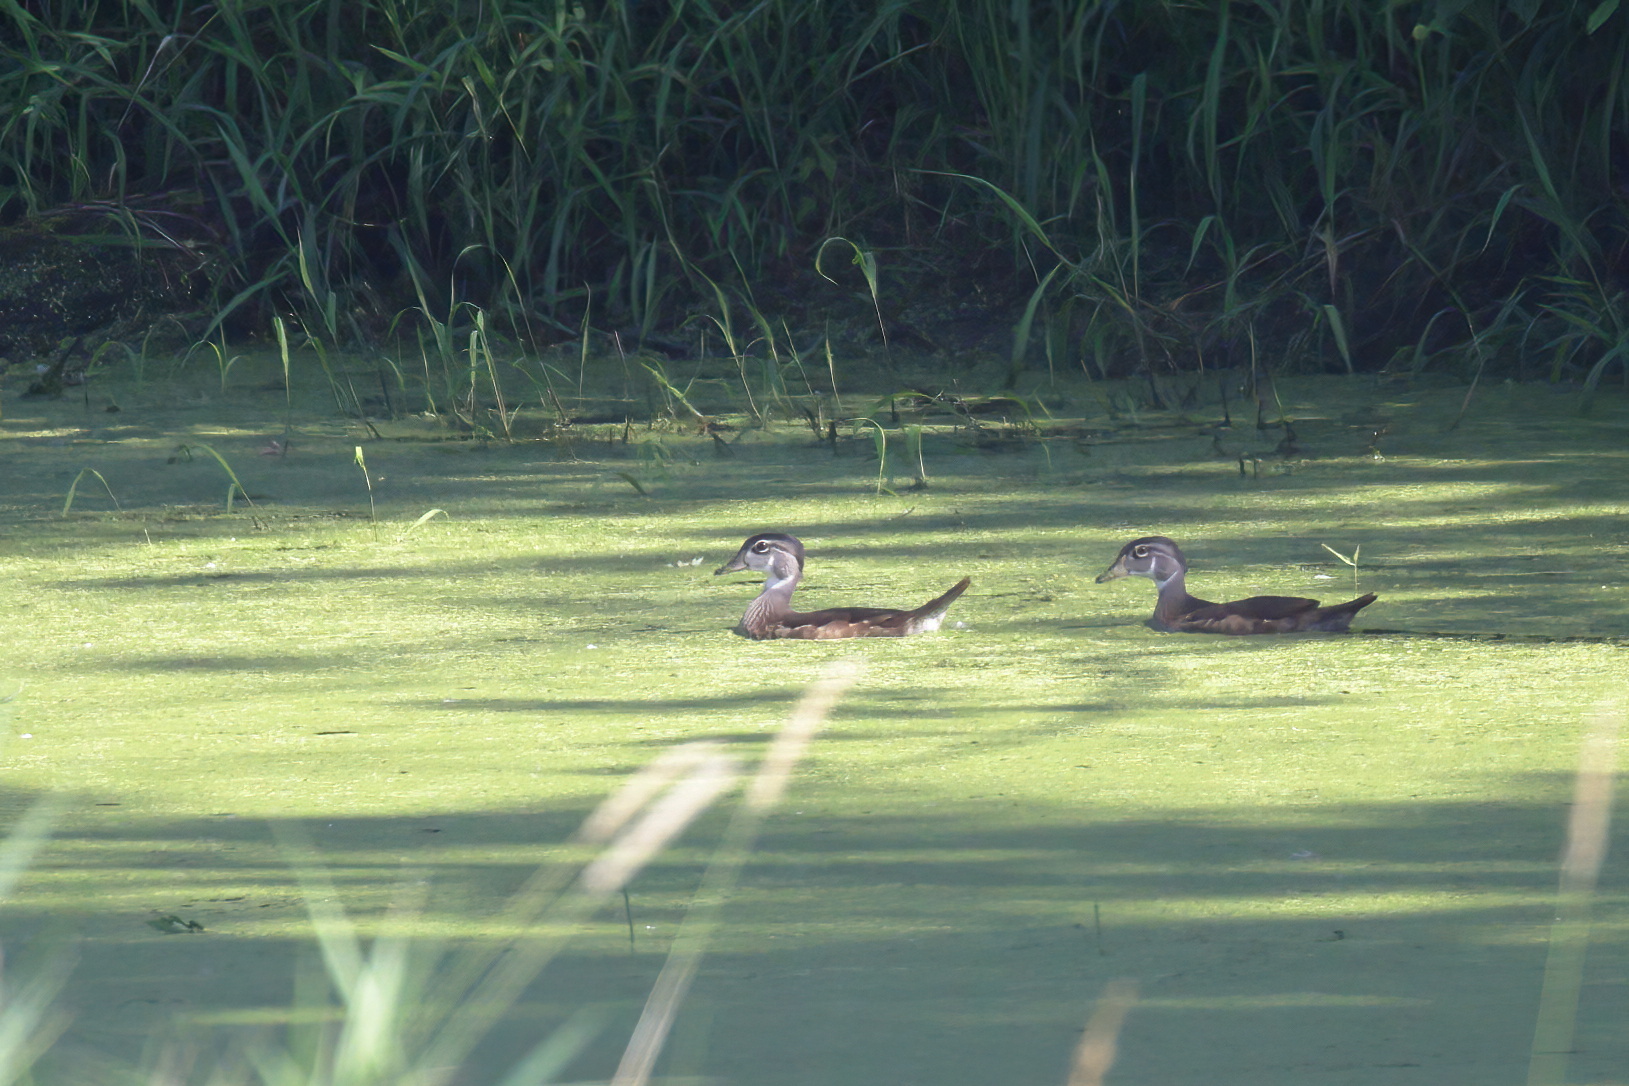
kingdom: Animalia
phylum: Chordata
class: Aves
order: Anseriformes
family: Anatidae
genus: Aix
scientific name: Aix sponsa
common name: Wood duck
